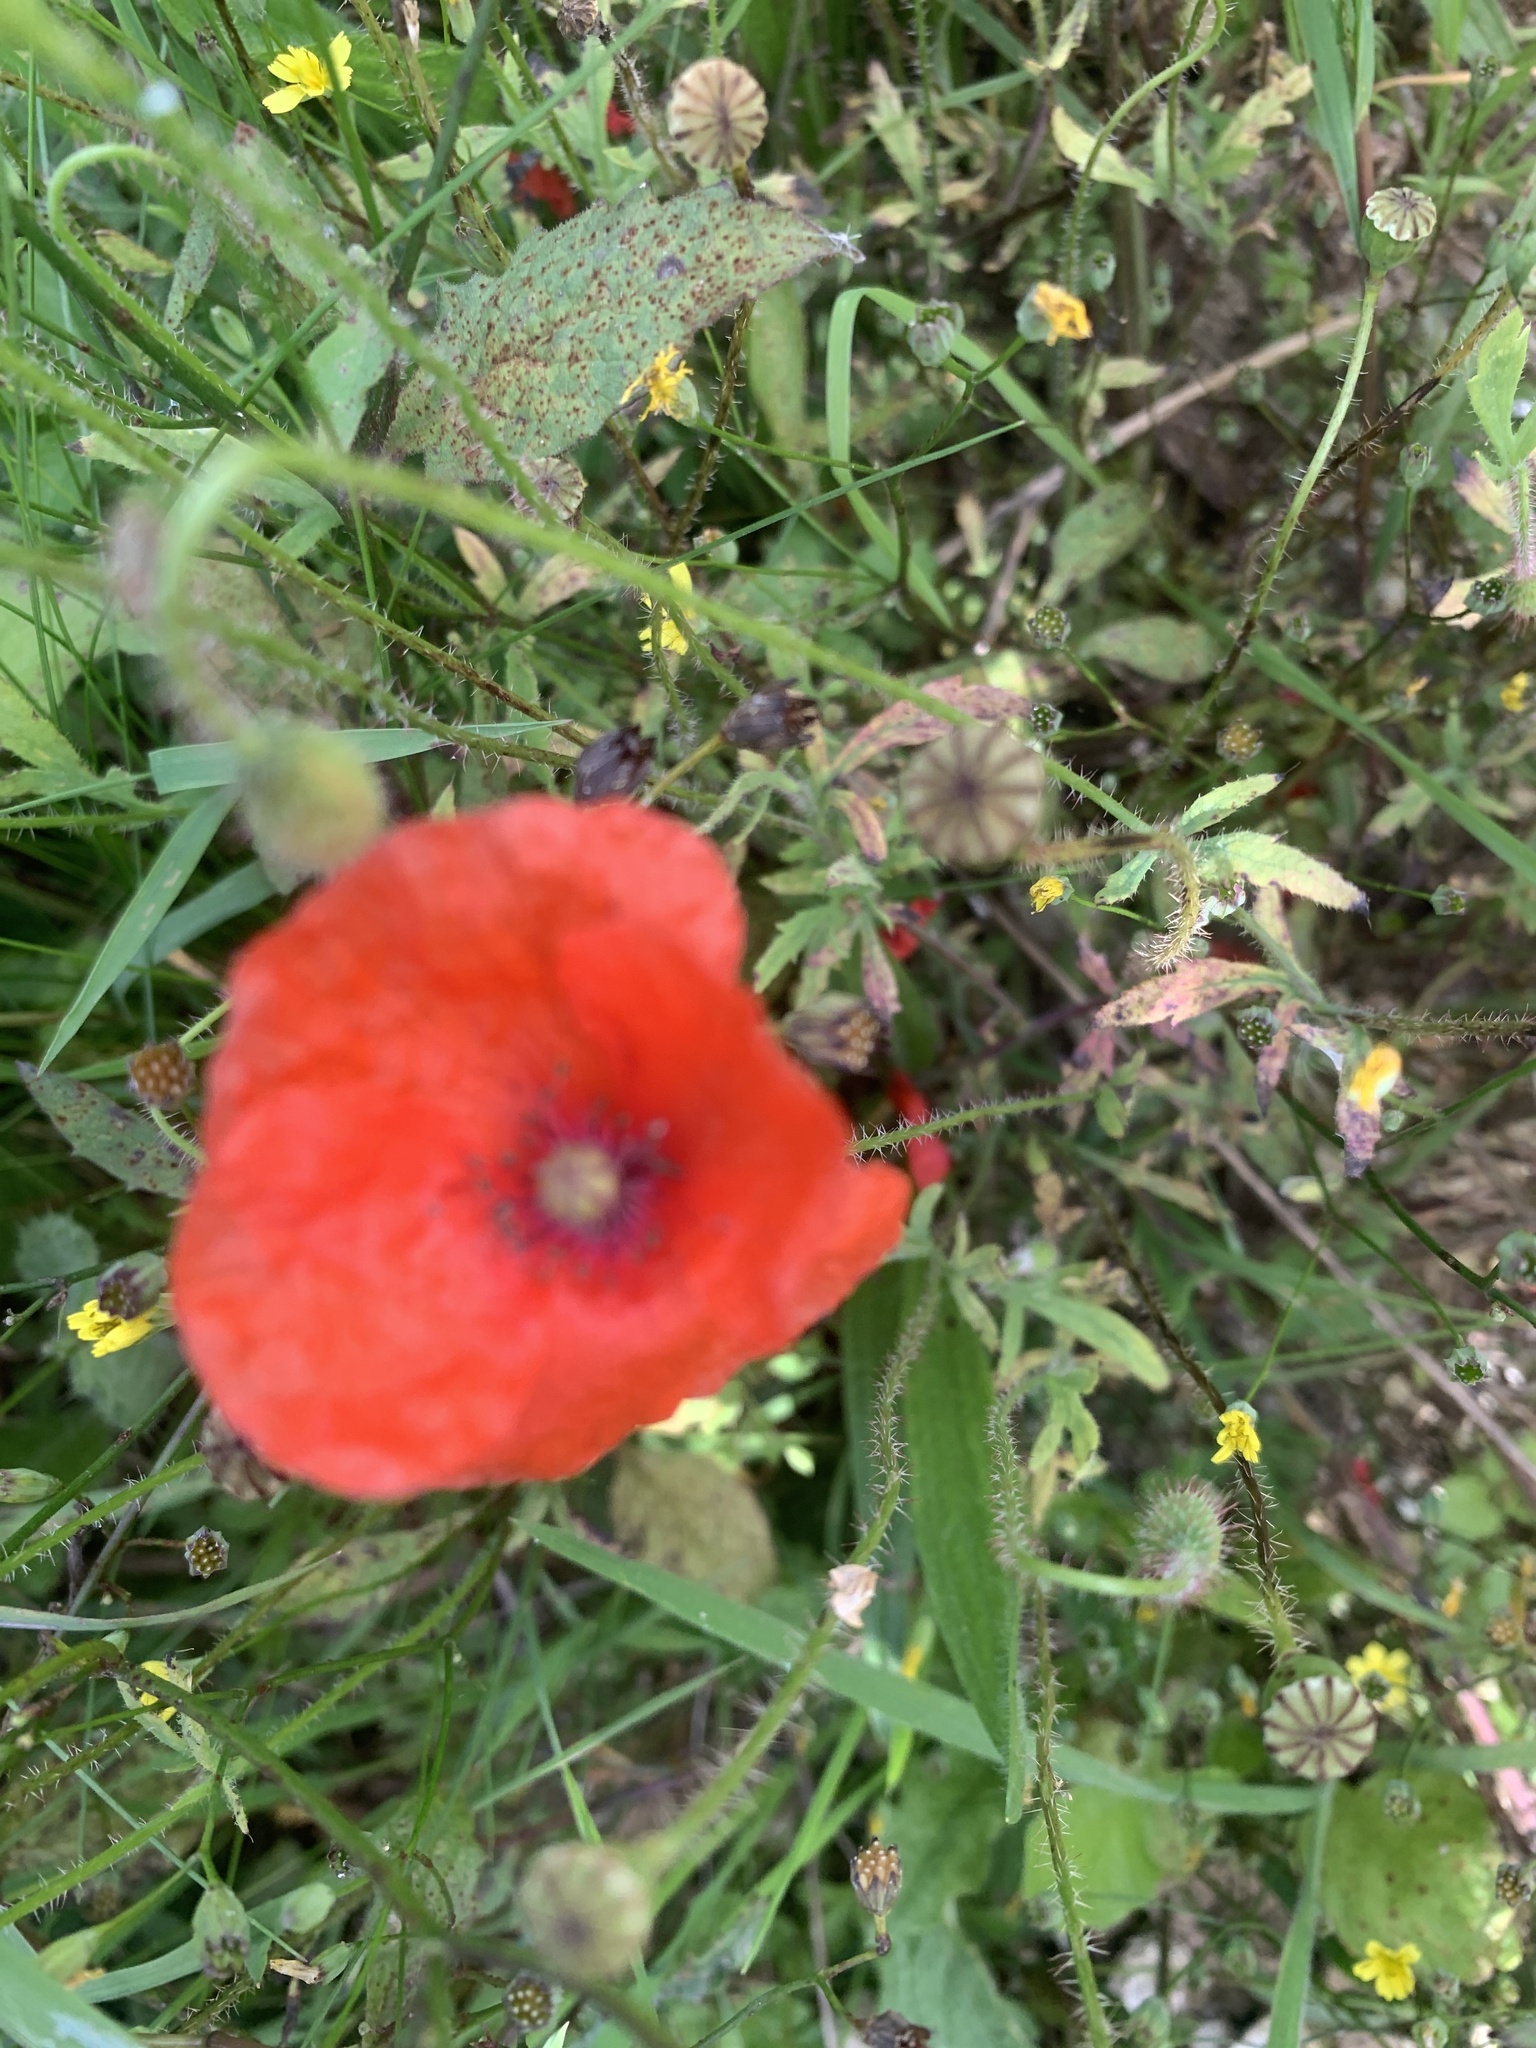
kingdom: Plantae
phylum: Tracheophyta
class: Magnoliopsida
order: Ranunculales
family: Papaveraceae
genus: Papaver
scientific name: Papaver rhoeas
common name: Corn poppy
